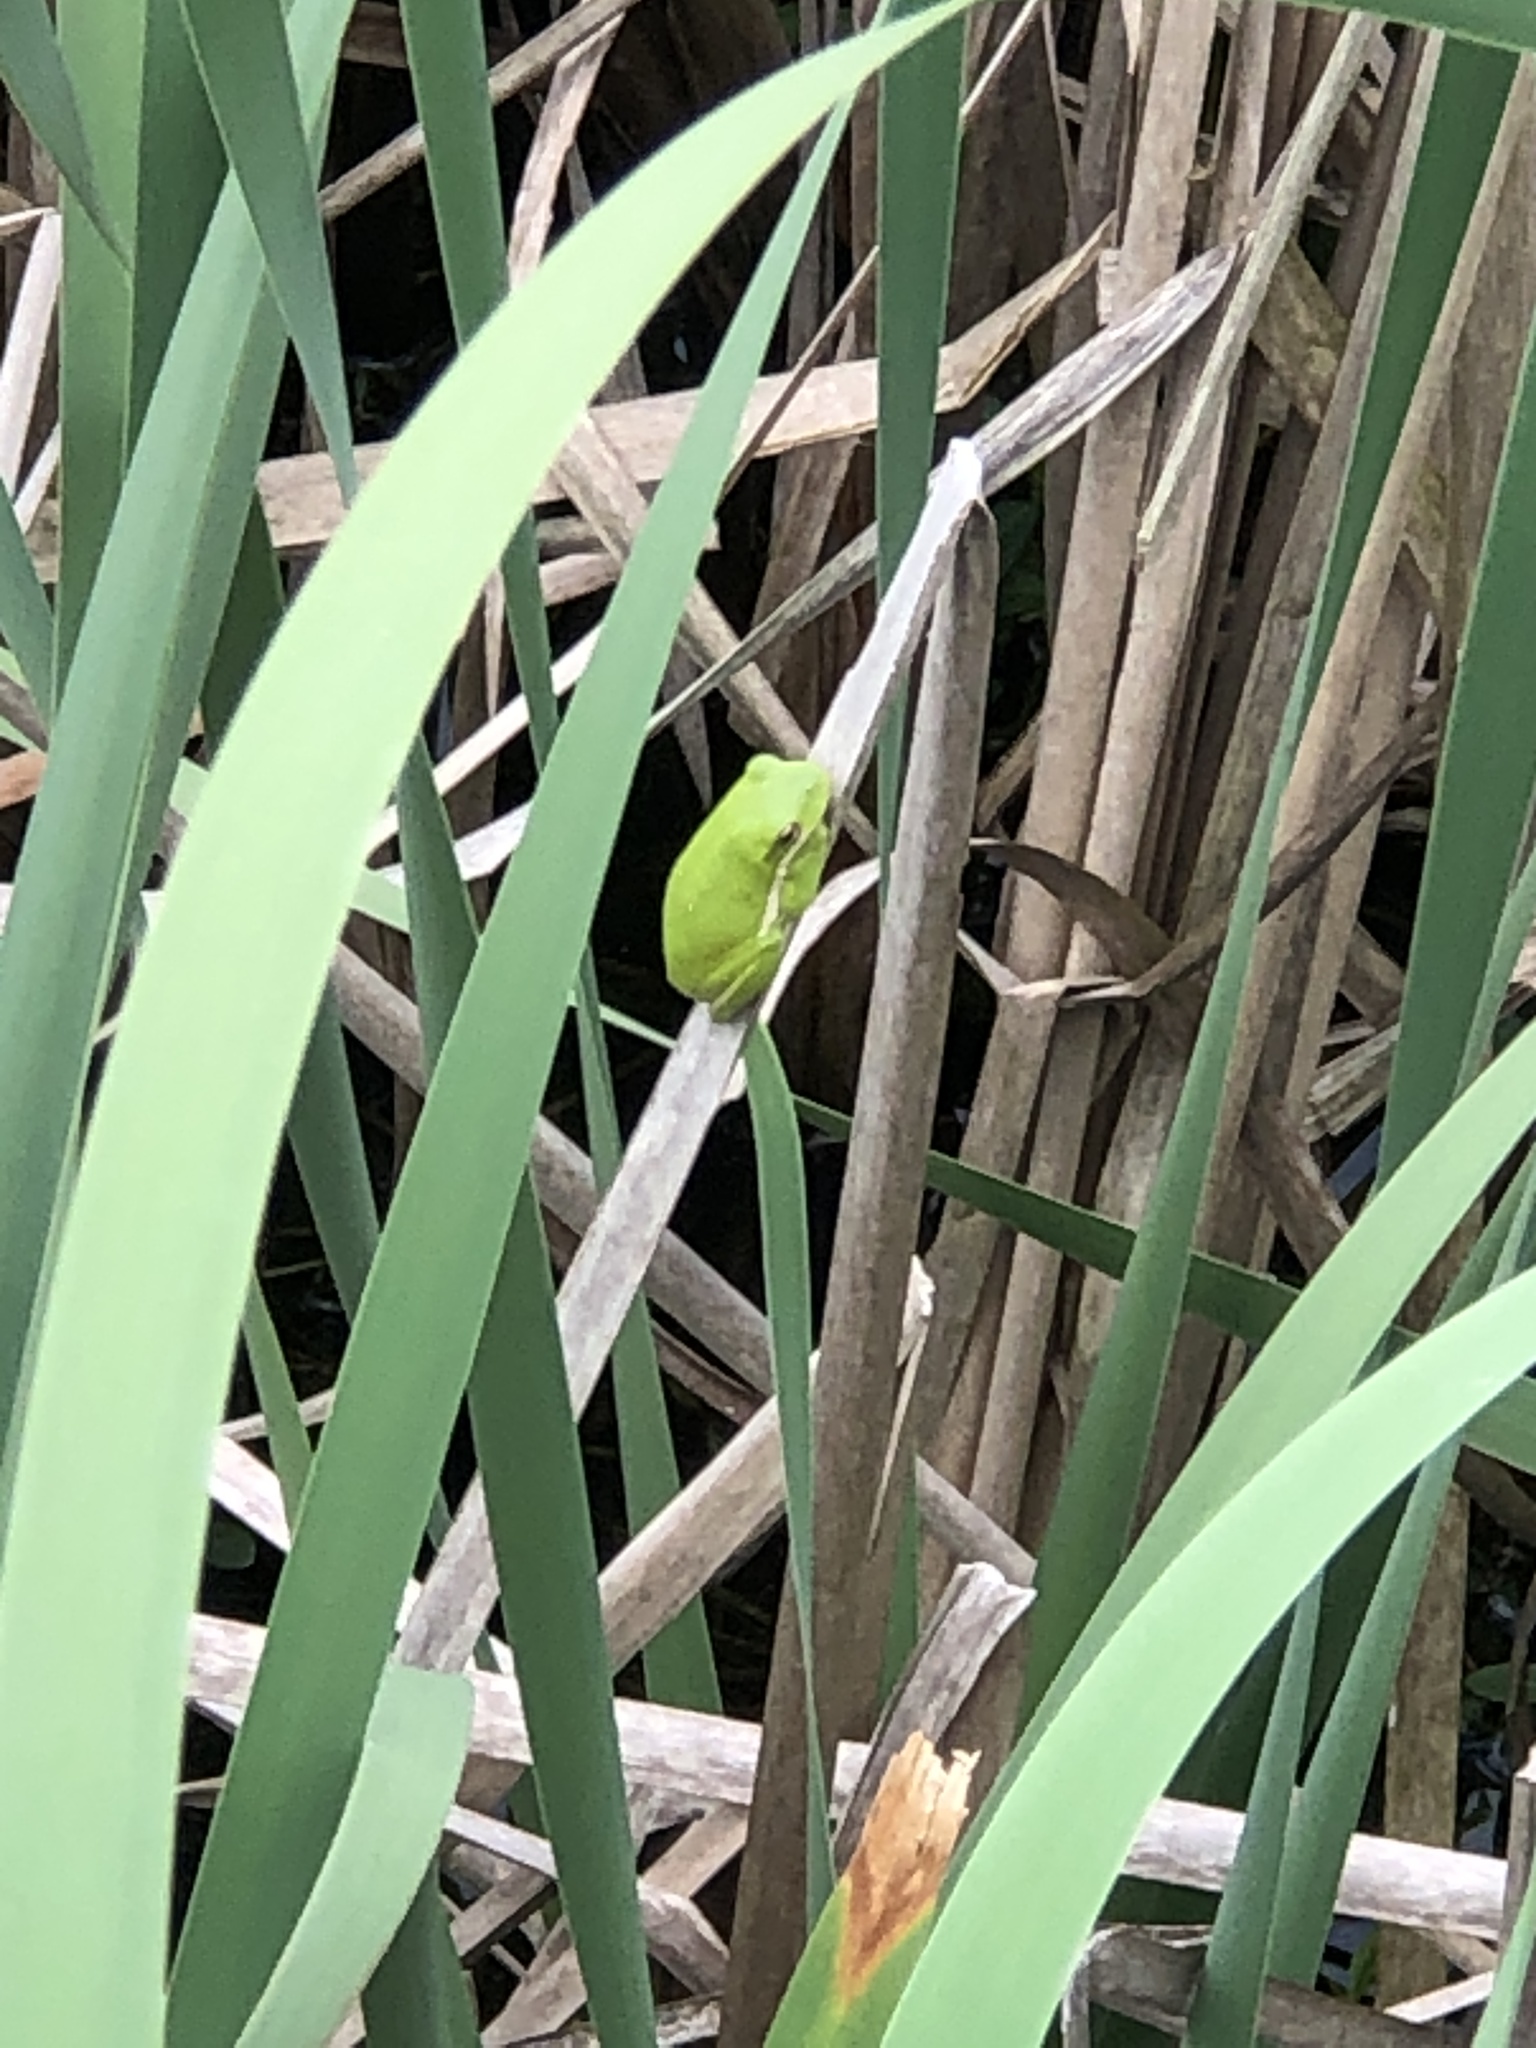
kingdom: Animalia
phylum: Chordata
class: Amphibia
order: Anura
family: Hylidae
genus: Dryophytes
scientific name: Dryophytes cinereus
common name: Green treefrog
